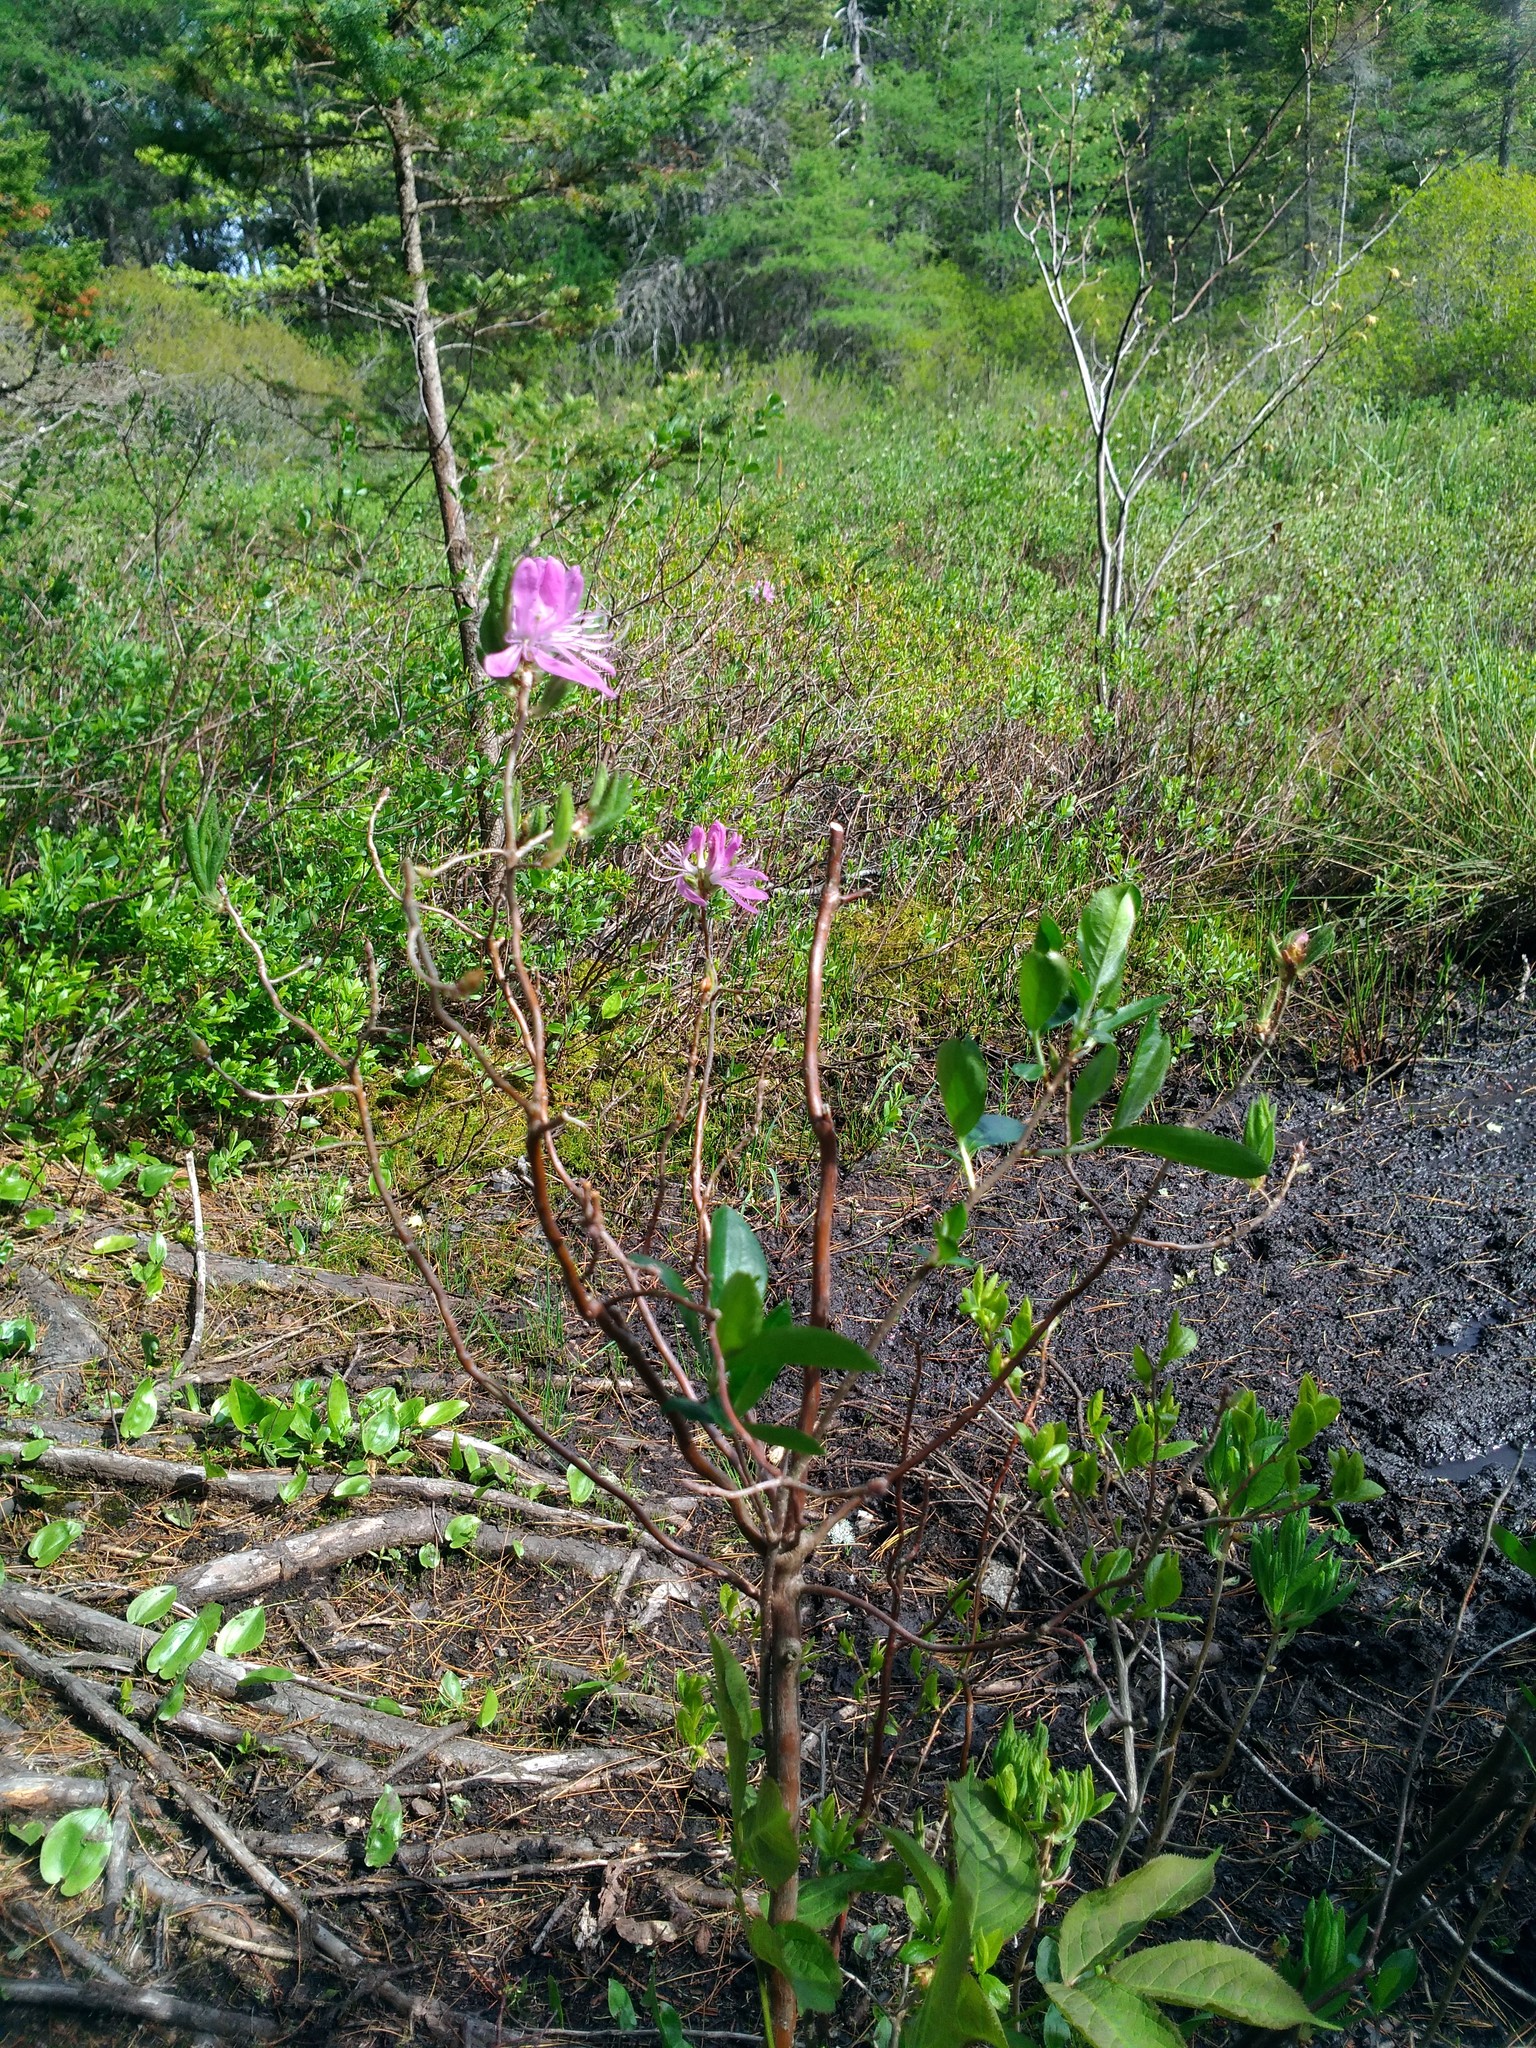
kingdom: Plantae
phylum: Tracheophyta
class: Magnoliopsida
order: Ericales
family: Ericaceae
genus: Rhododendron
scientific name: Rhododendron canadense
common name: Rhodora
